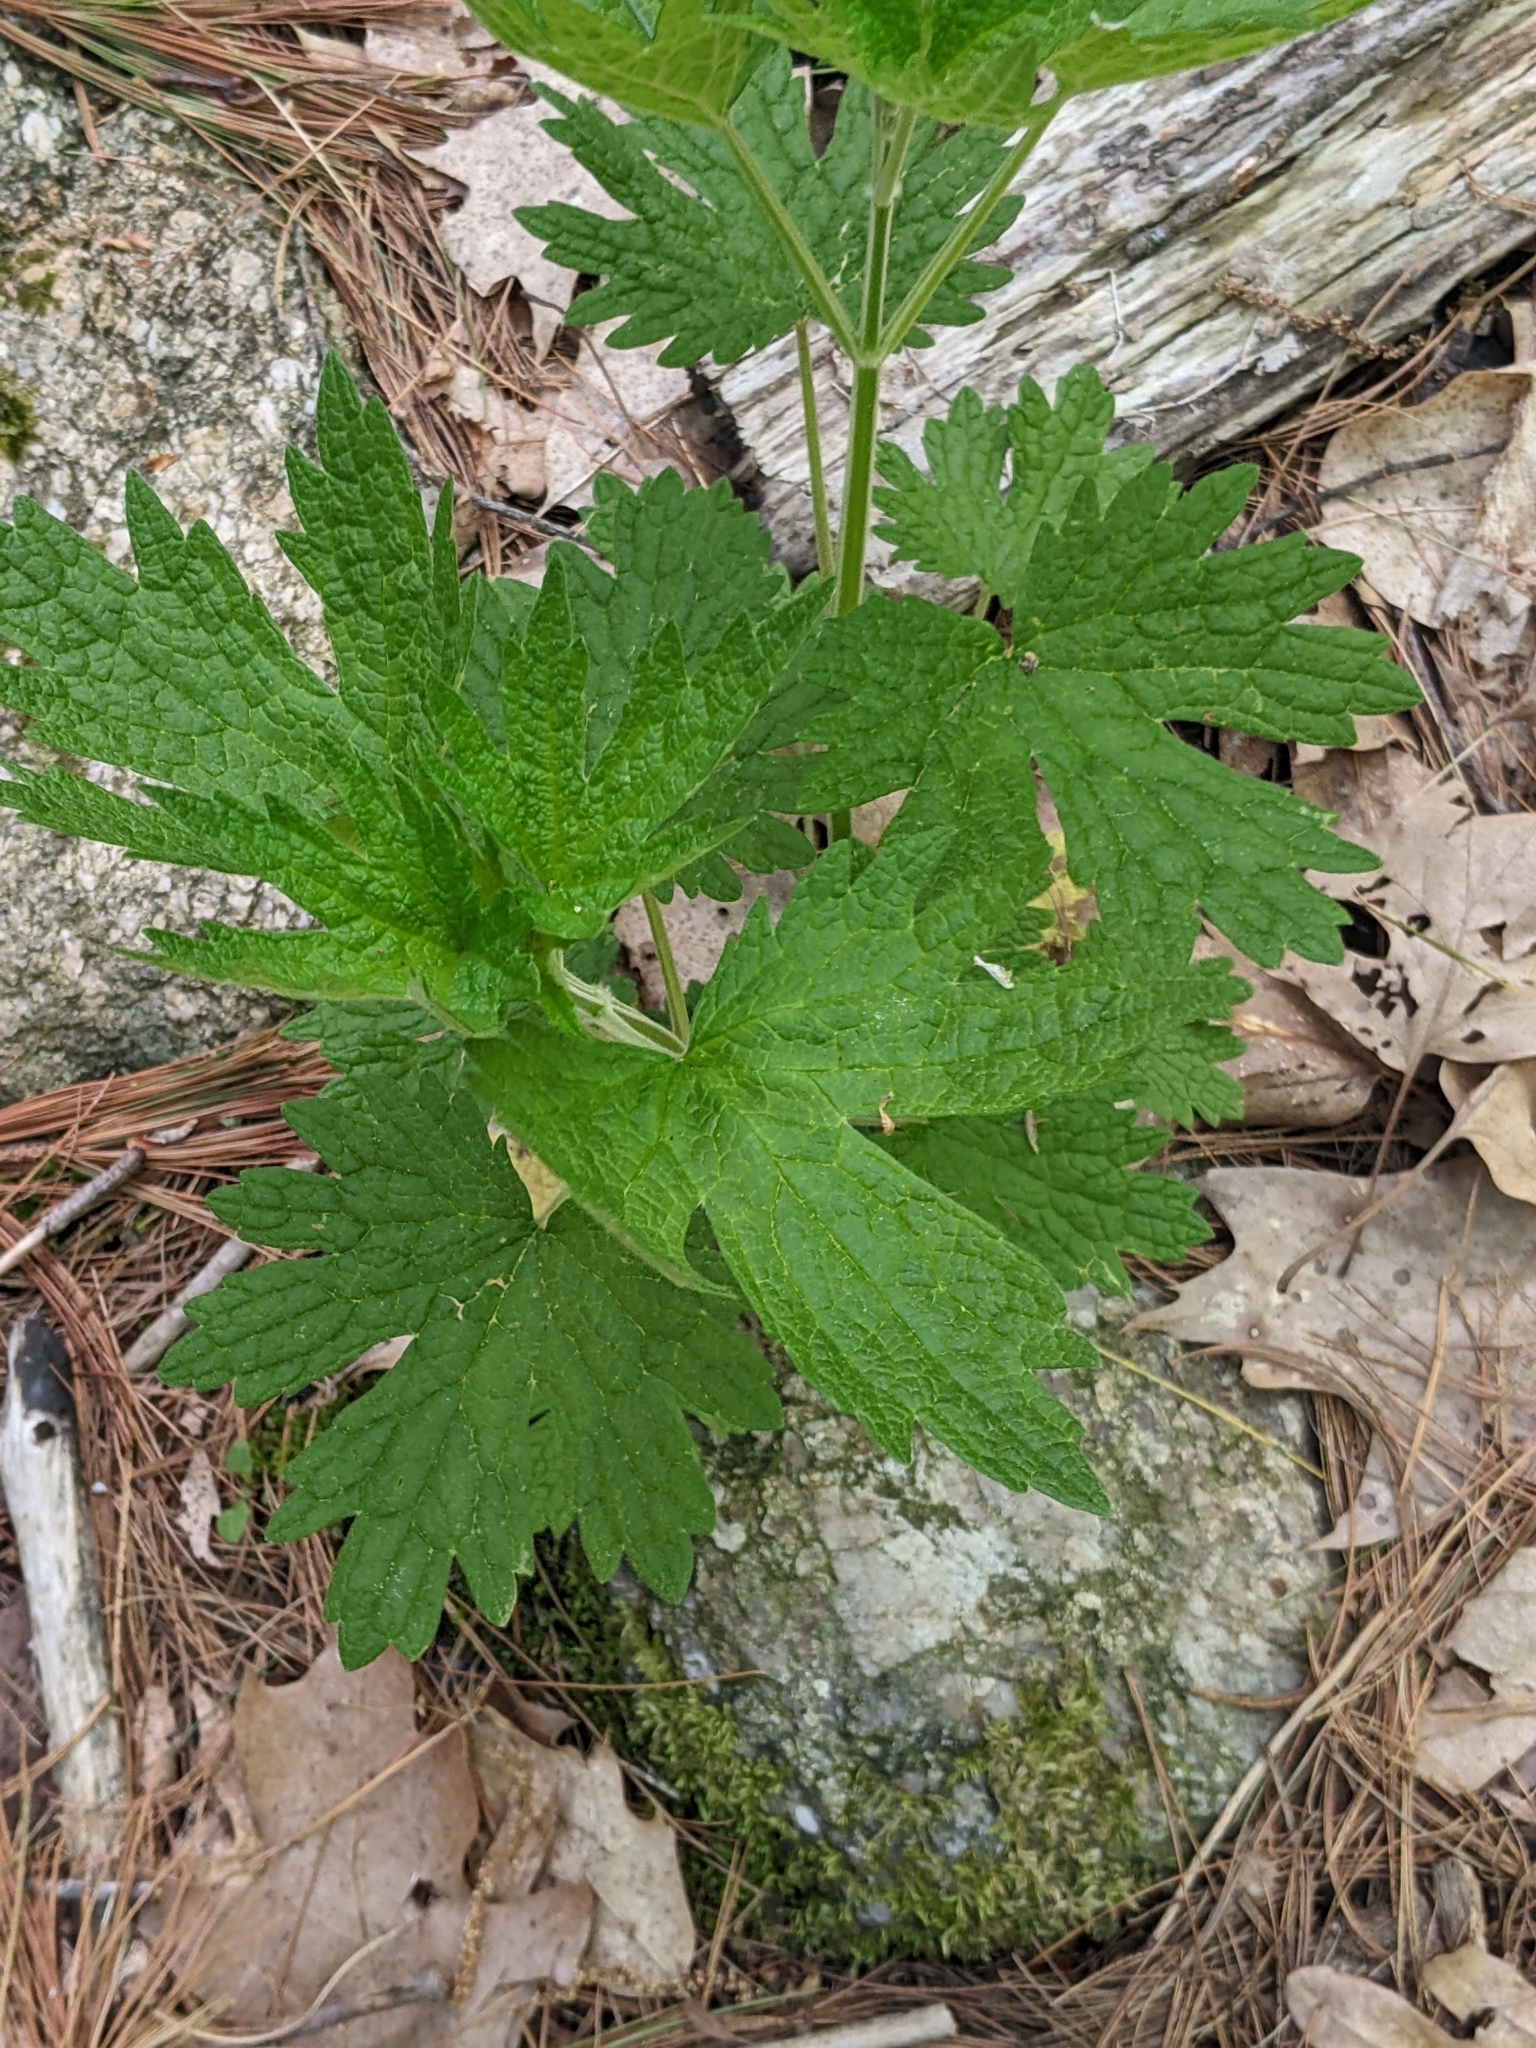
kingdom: Plantae
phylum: Tracheophyta
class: Magnoliopsida
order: Lamiales
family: Lamiaceae
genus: Leonurus
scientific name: Leonurus cardiaca
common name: Motherwort
